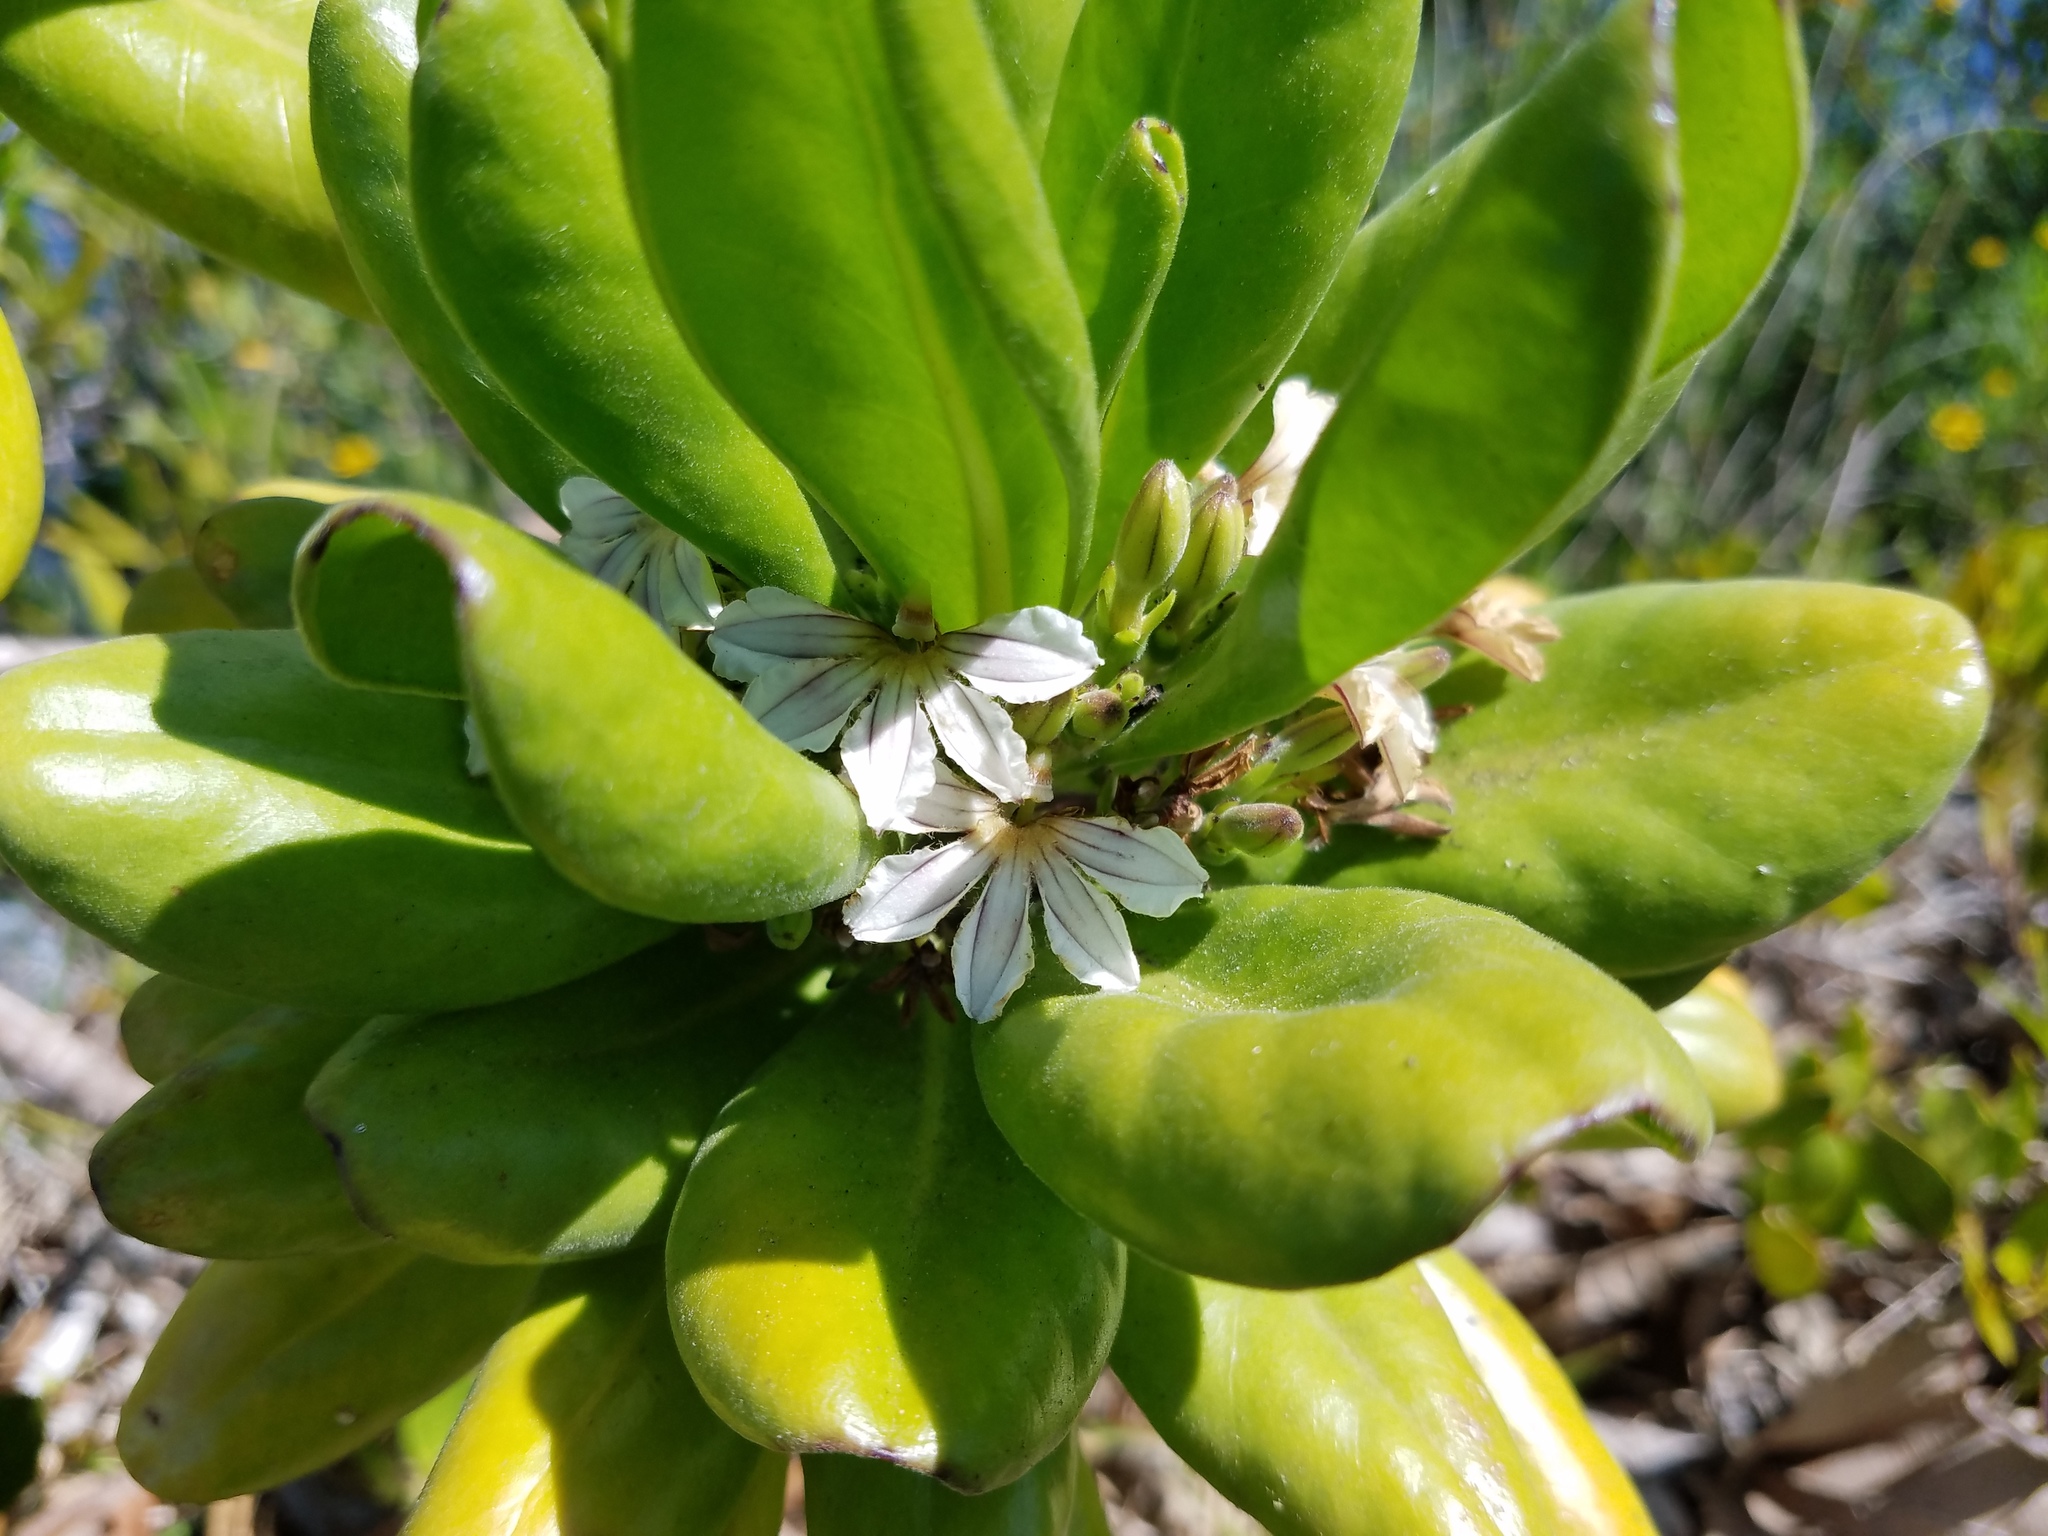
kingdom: Plantae
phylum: Tracheophyta
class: Magnoliopsida
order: Asterales
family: Goodeniaceae
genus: Scaevola
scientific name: Scaevola taccada
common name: Sea lettucetree
